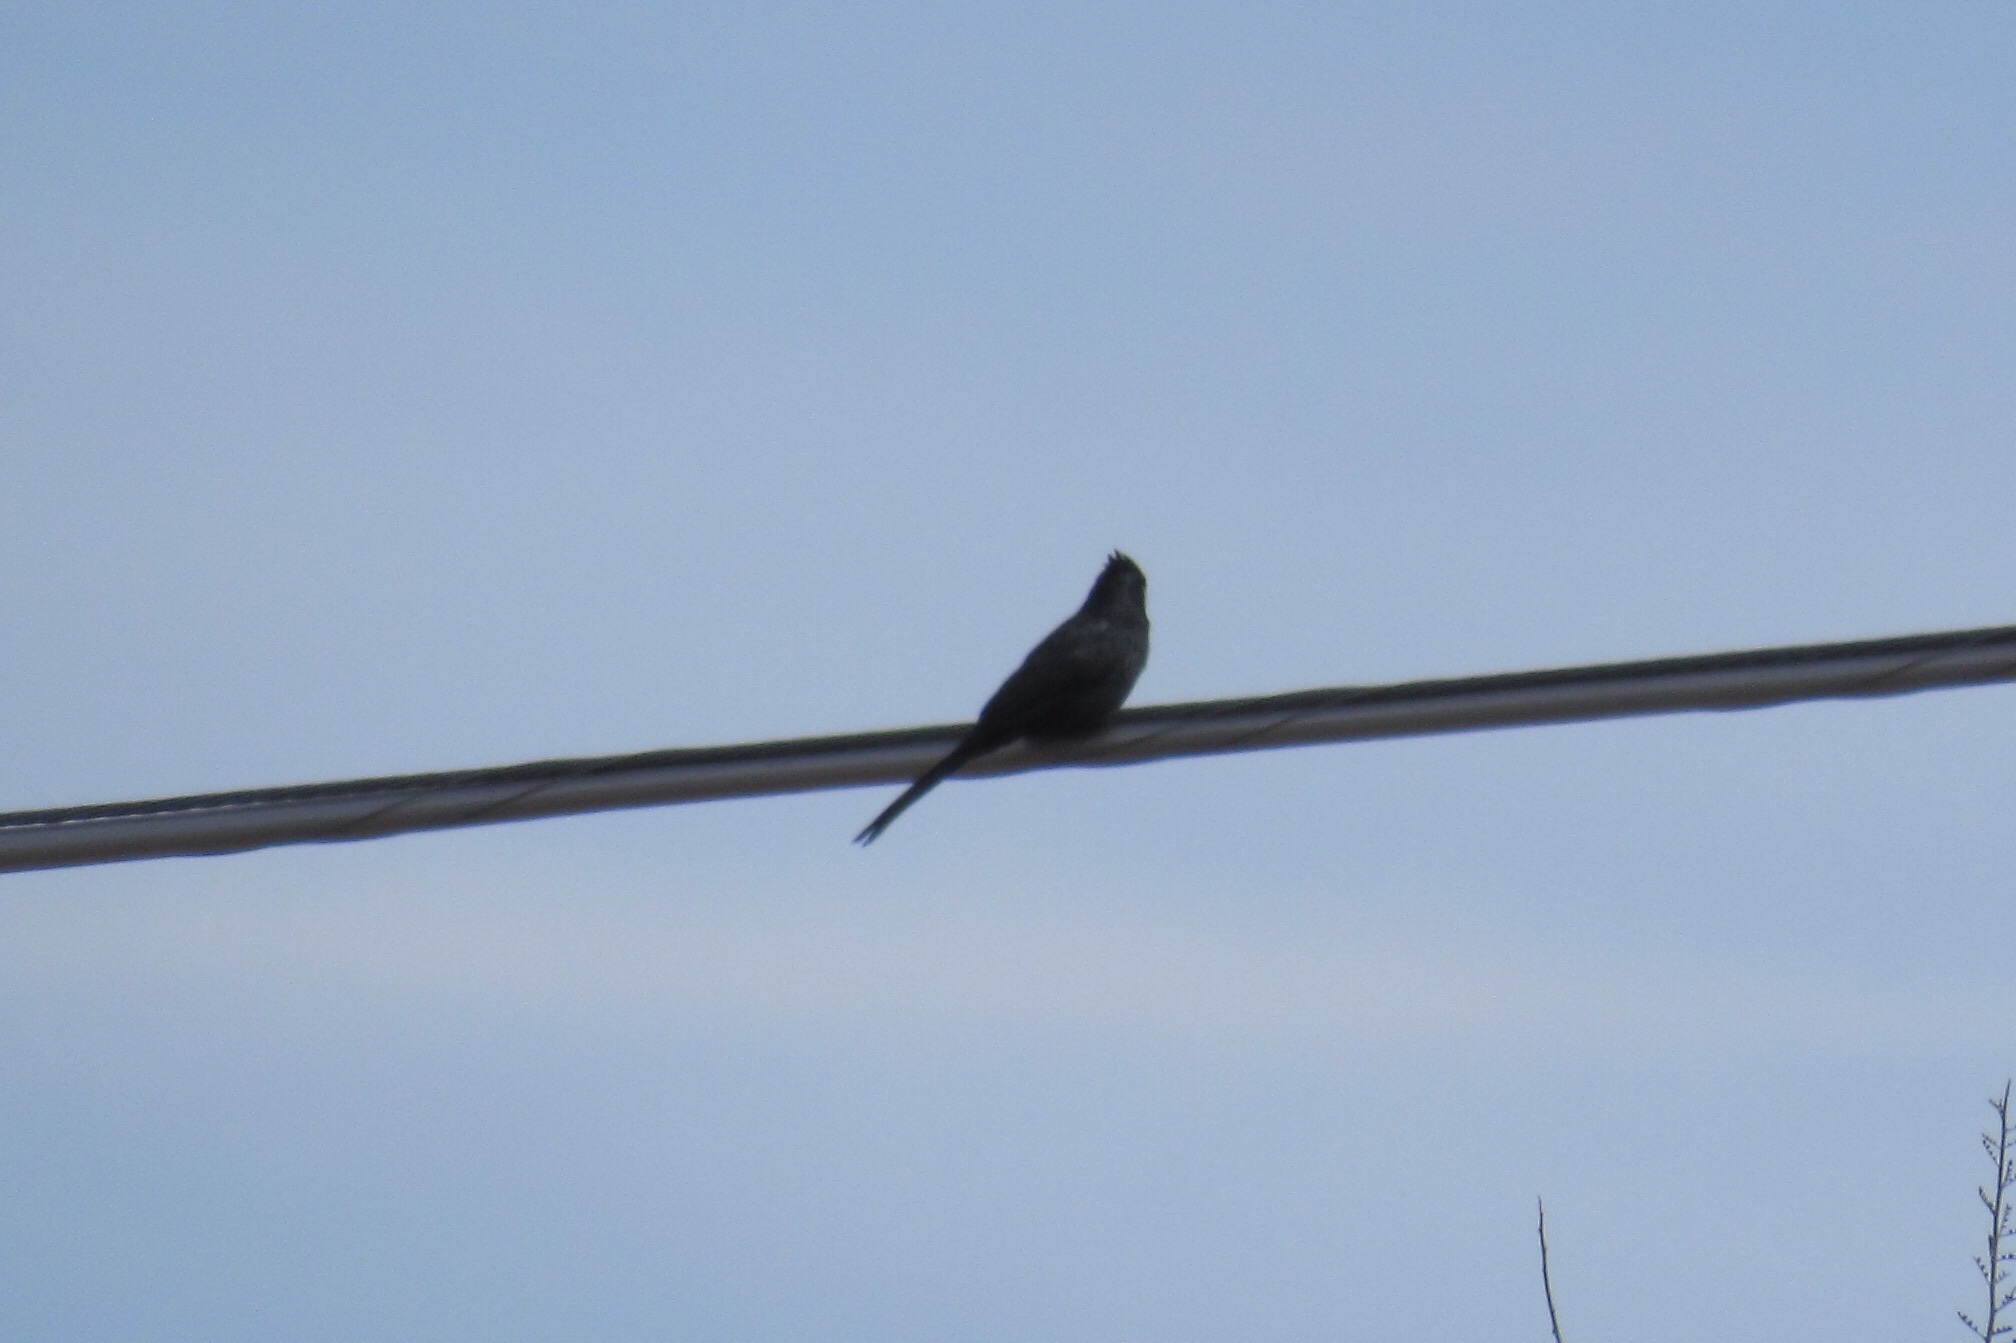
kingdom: Animalia
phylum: Chordata
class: Aves
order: Passeriformes
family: Ptilogonatidae
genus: Phainopepla
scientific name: Phainopepla nitens
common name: Phainopepla
